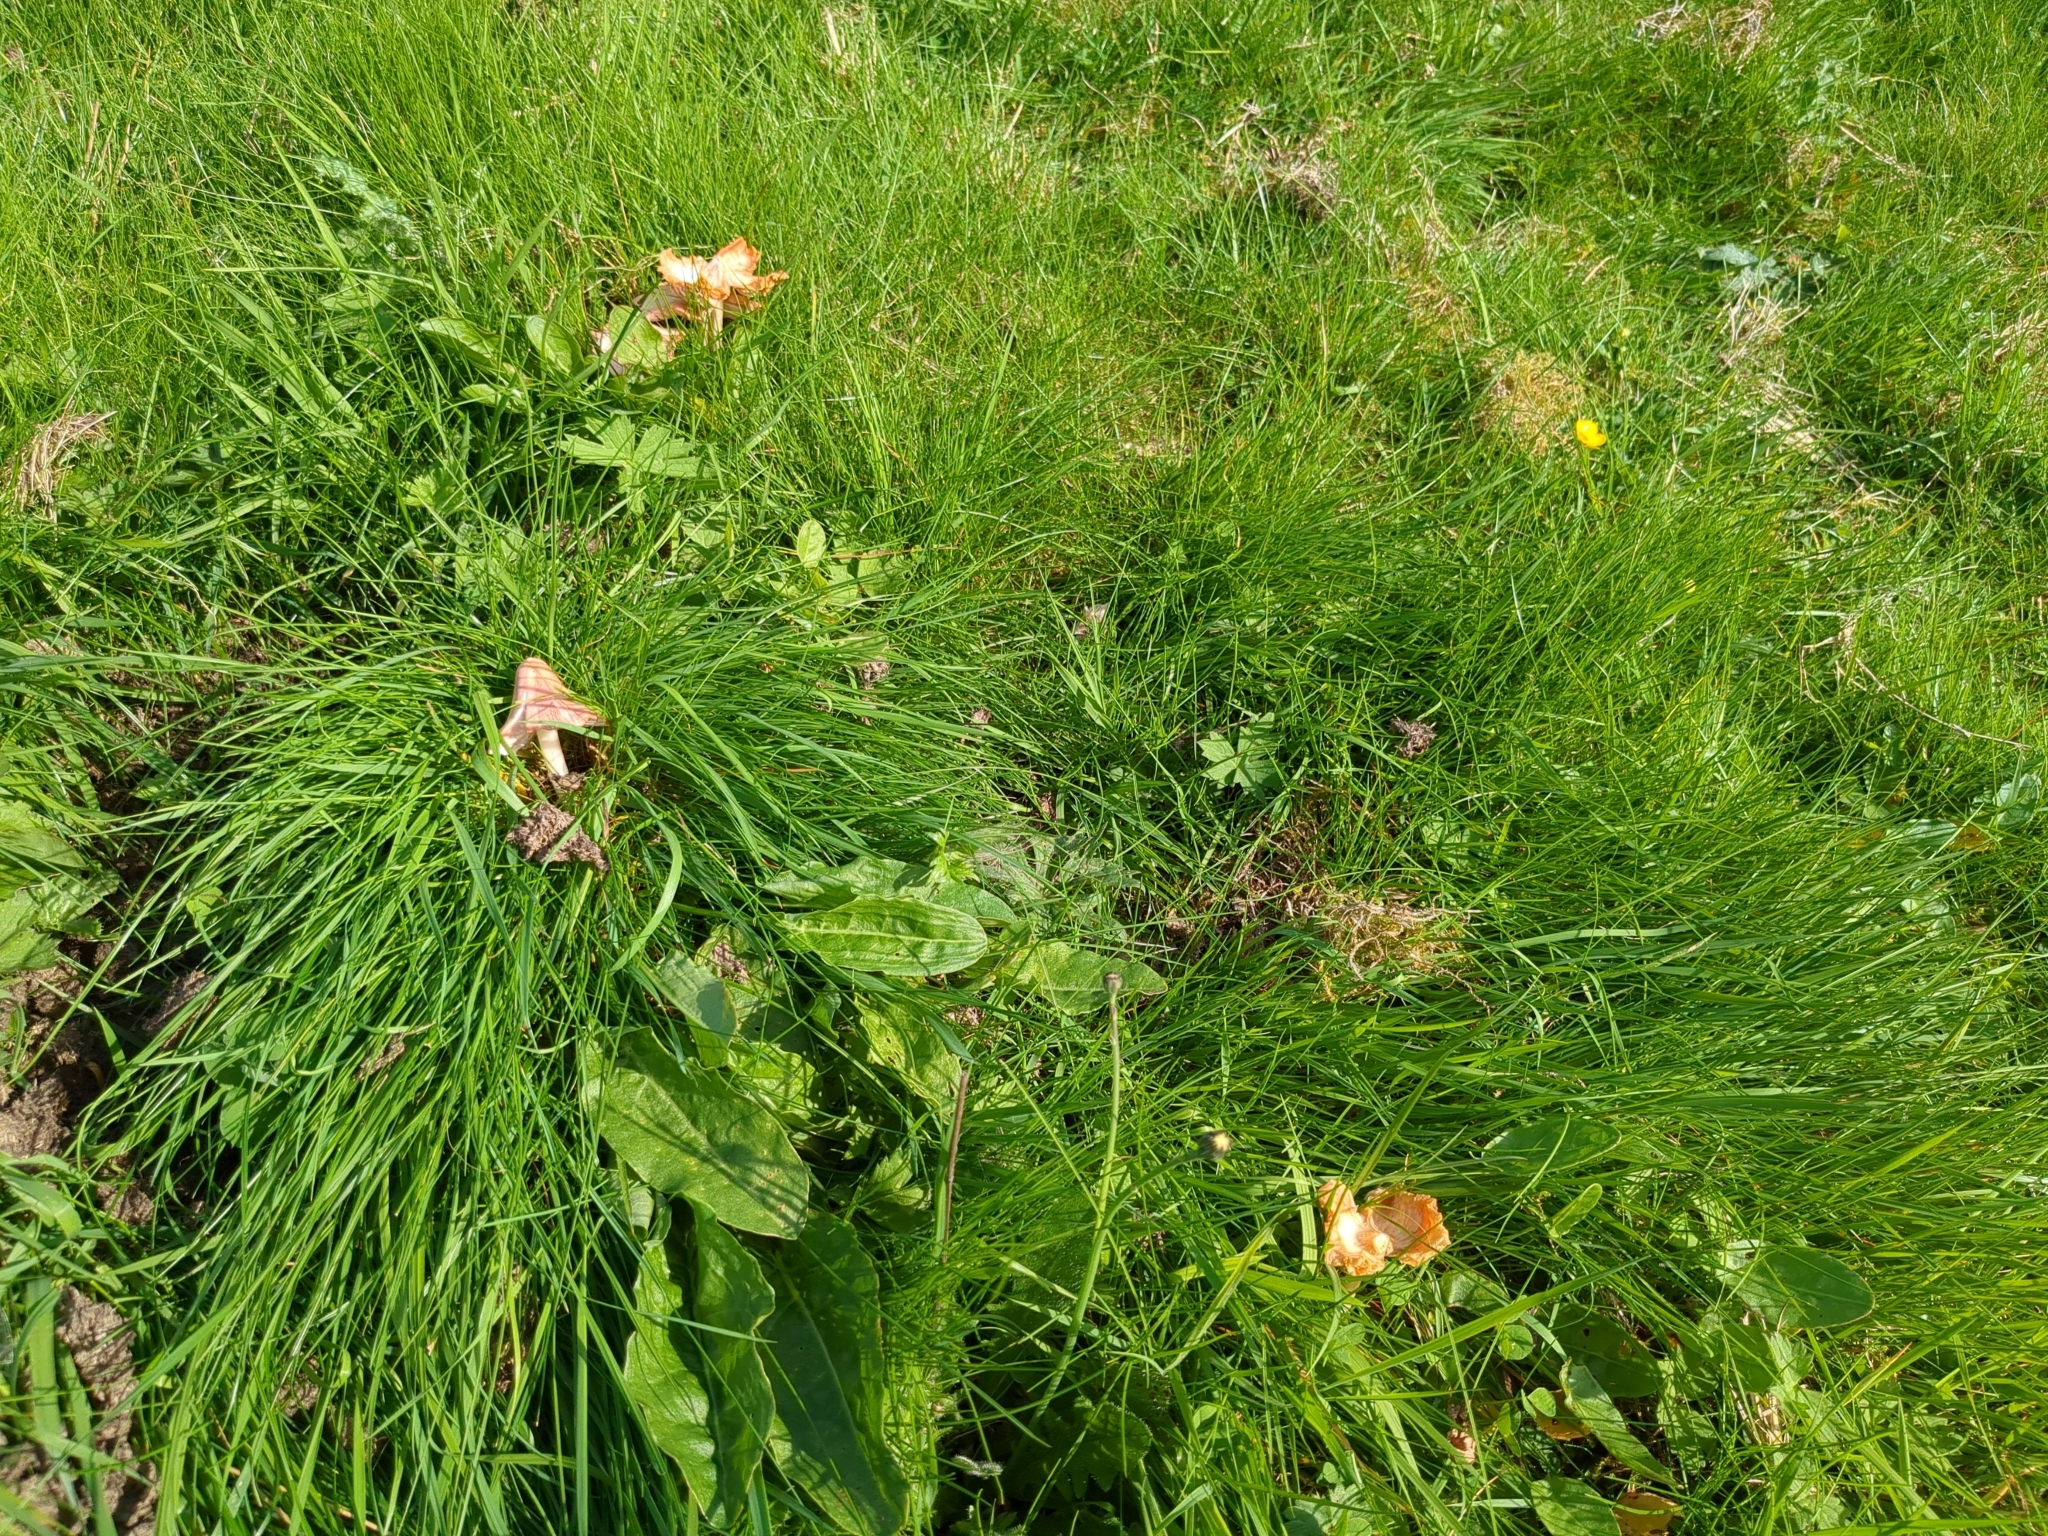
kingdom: Fungi
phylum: Basidiomycota
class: Agaricomycetes
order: Agaricales
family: Hygrophoraceae
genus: Porpolomopsis
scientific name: Porpolomopsis calyptriformis
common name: Pink waxcap
